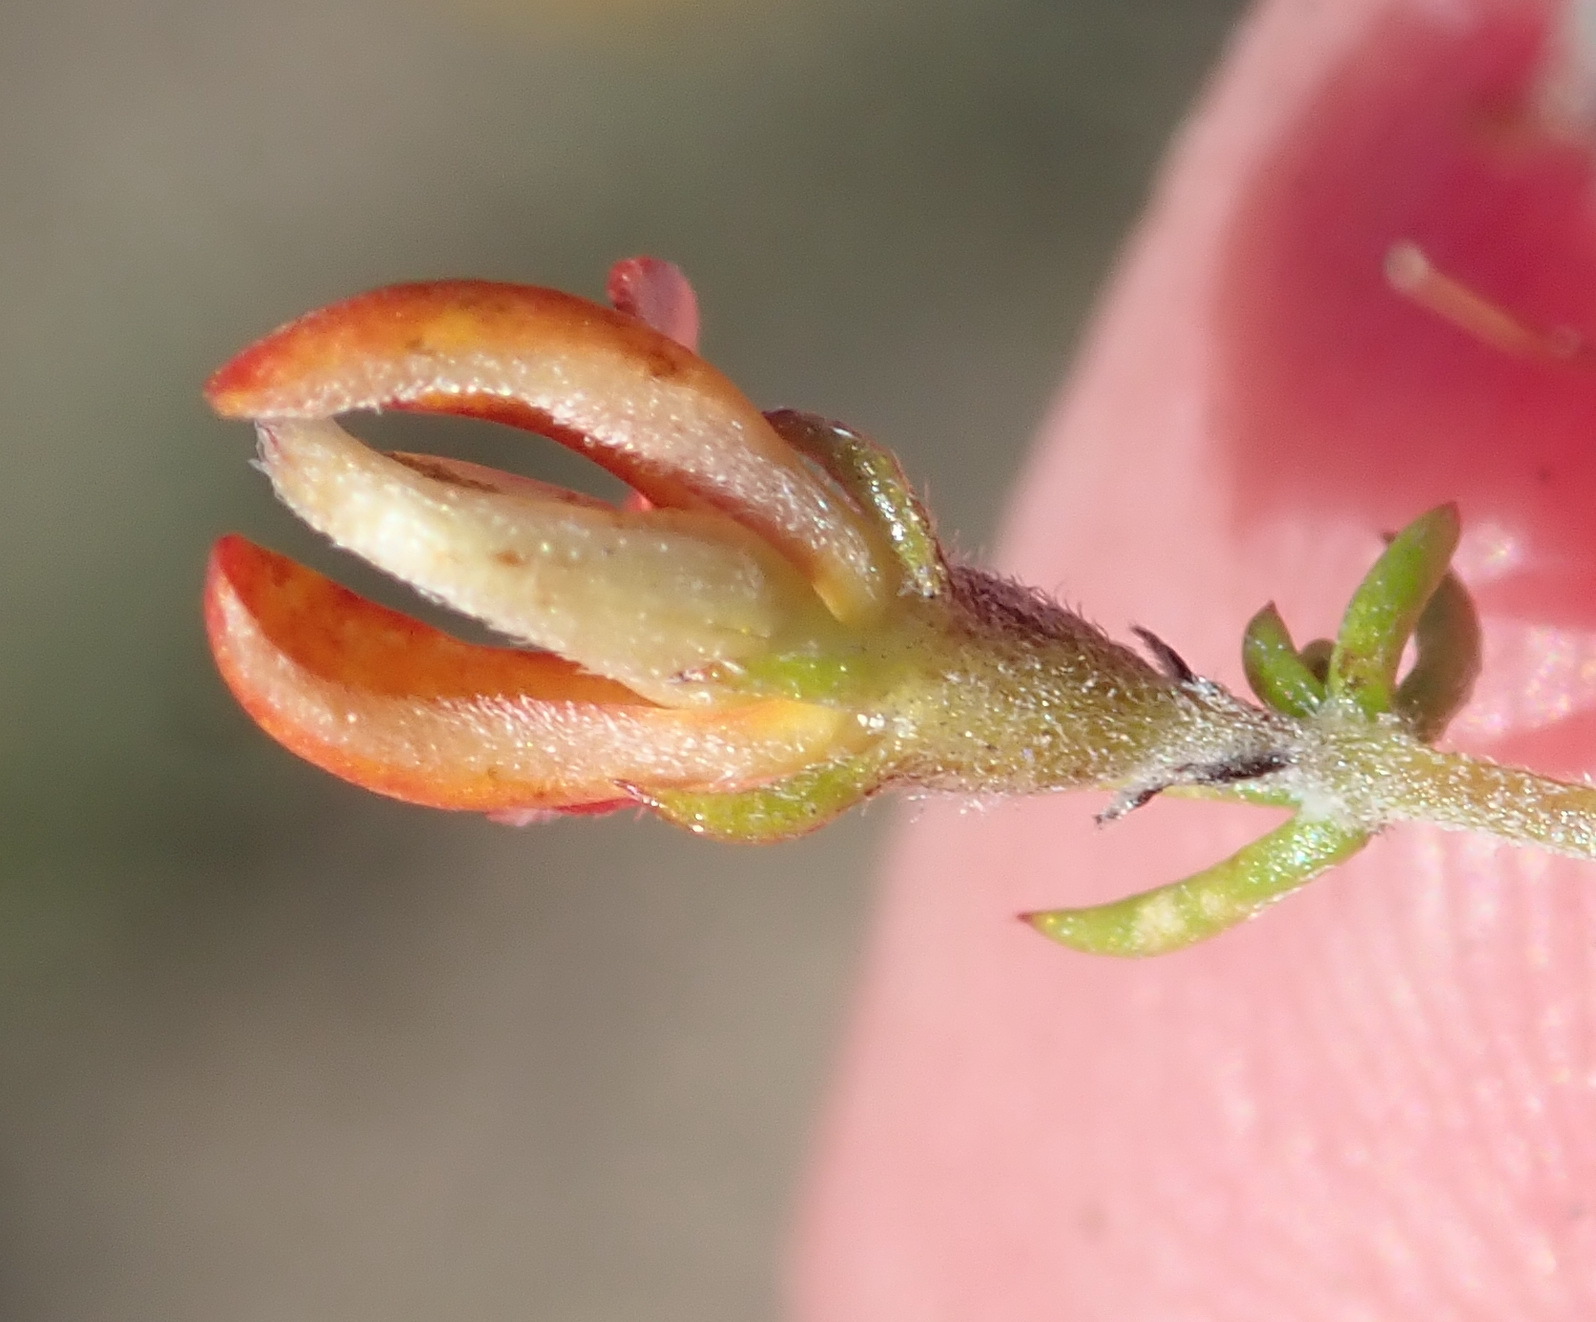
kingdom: Plantae
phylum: Tracheophyta
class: Magnoliopsida
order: Fabales
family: Fabaceae
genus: Aspalathus
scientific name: Aspalathus rubens
